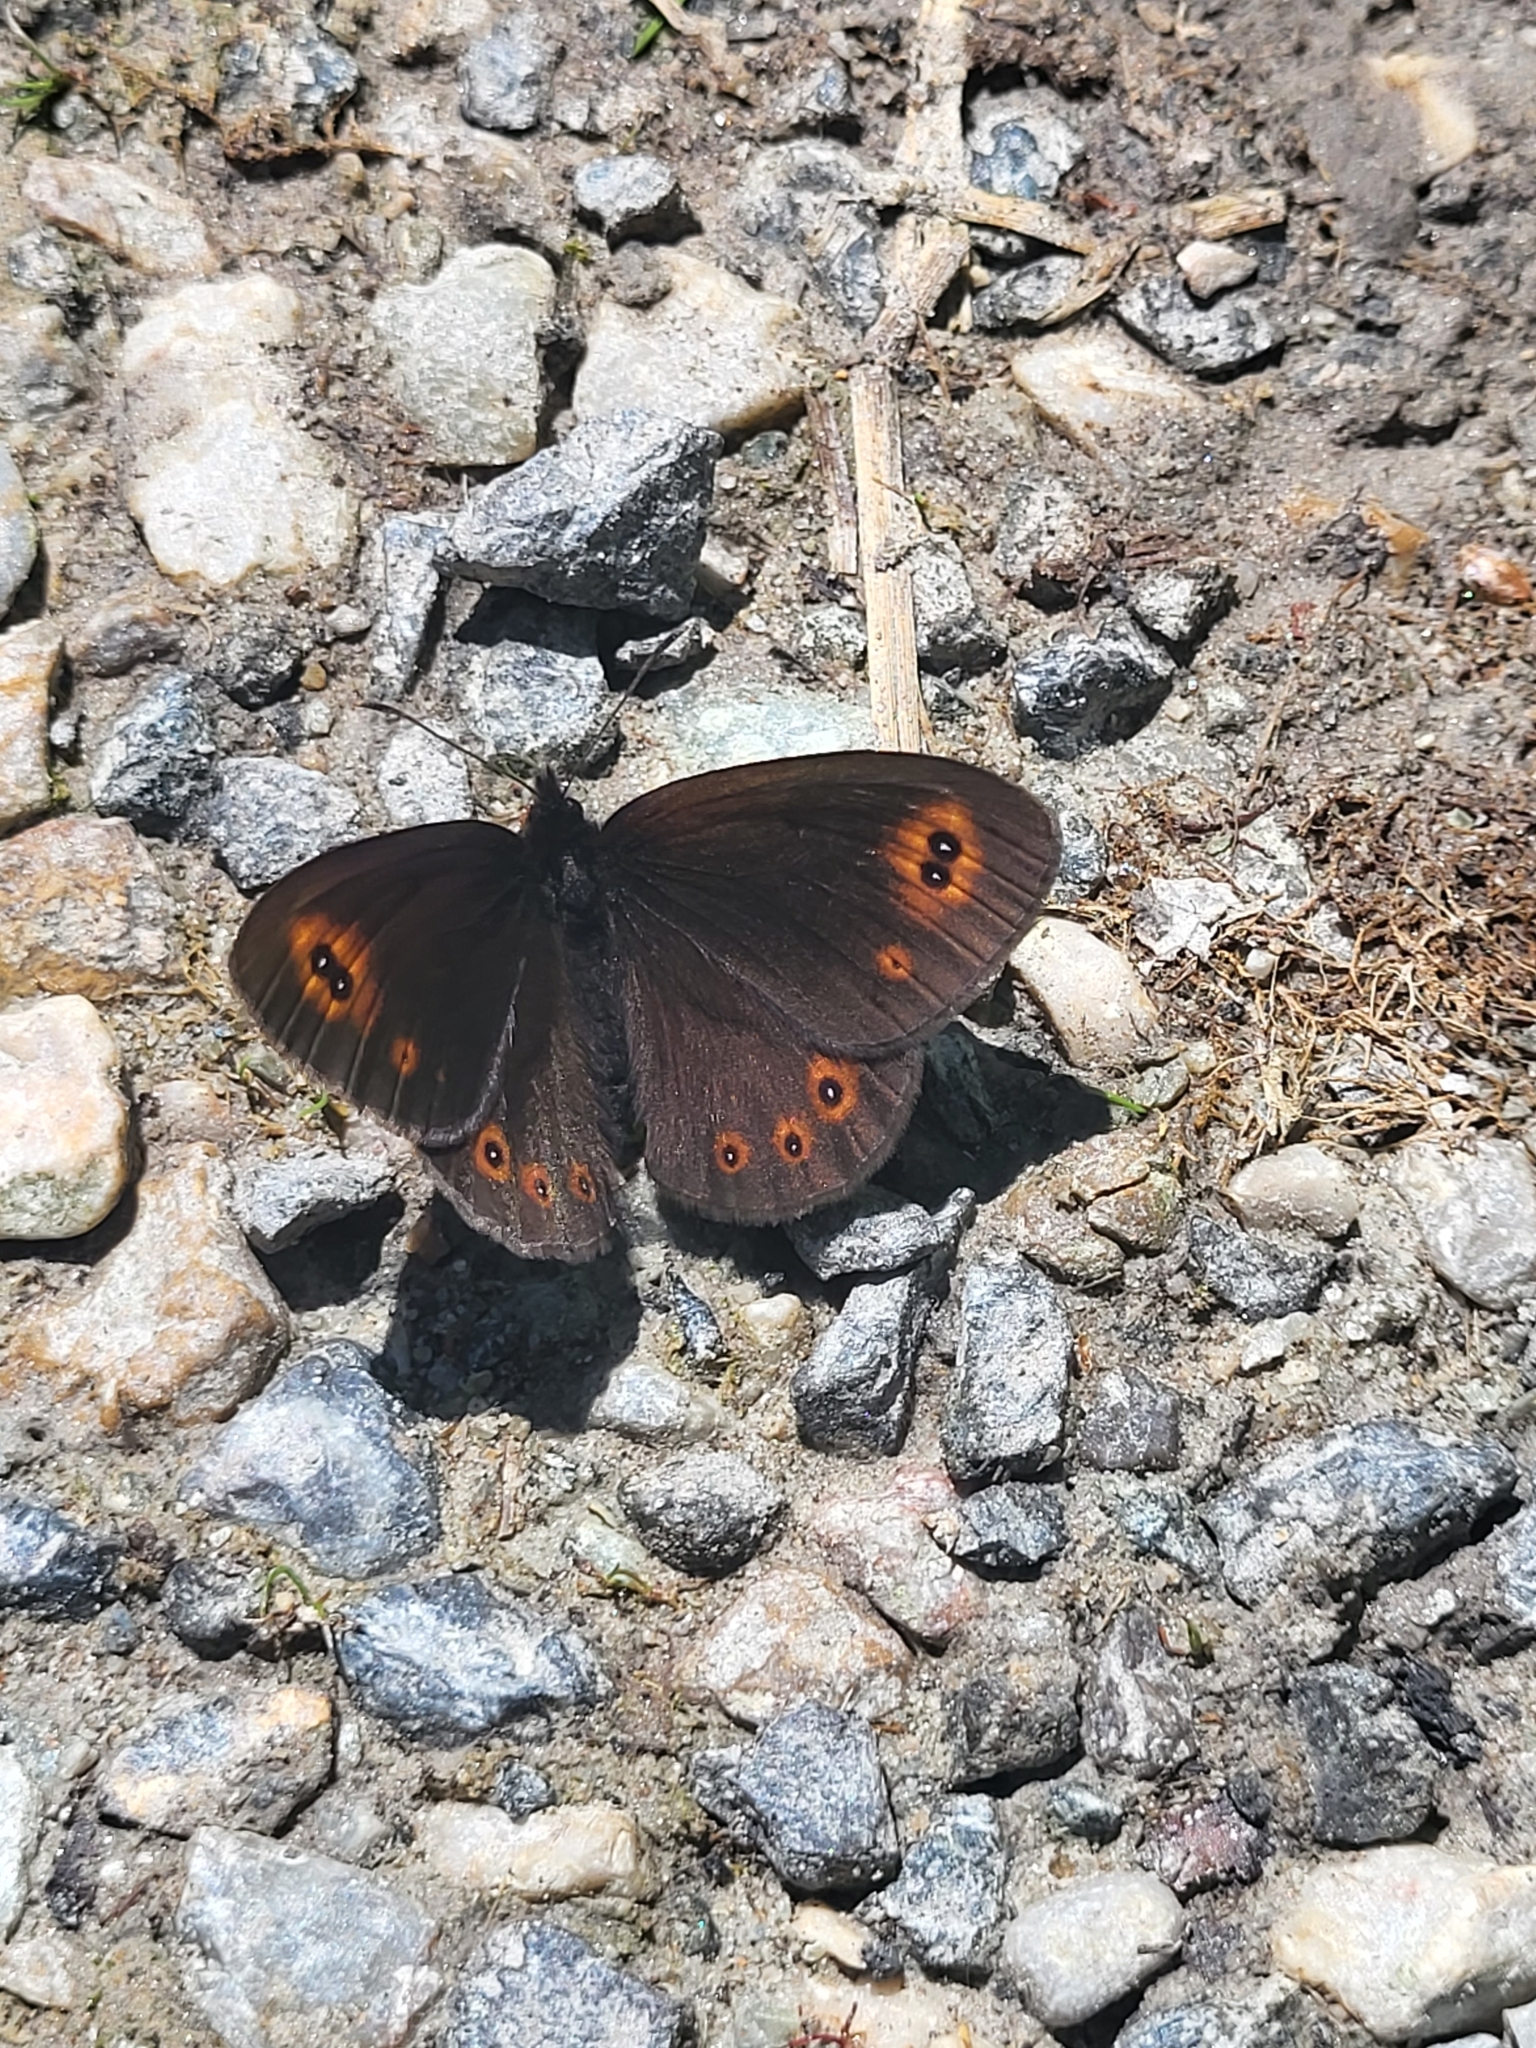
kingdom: Animalia
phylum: Arthropoda
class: Insecta
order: Lepidoptera
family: Nymphalidae
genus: Erebia
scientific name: Erebia medusa
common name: Woodland ringlet
